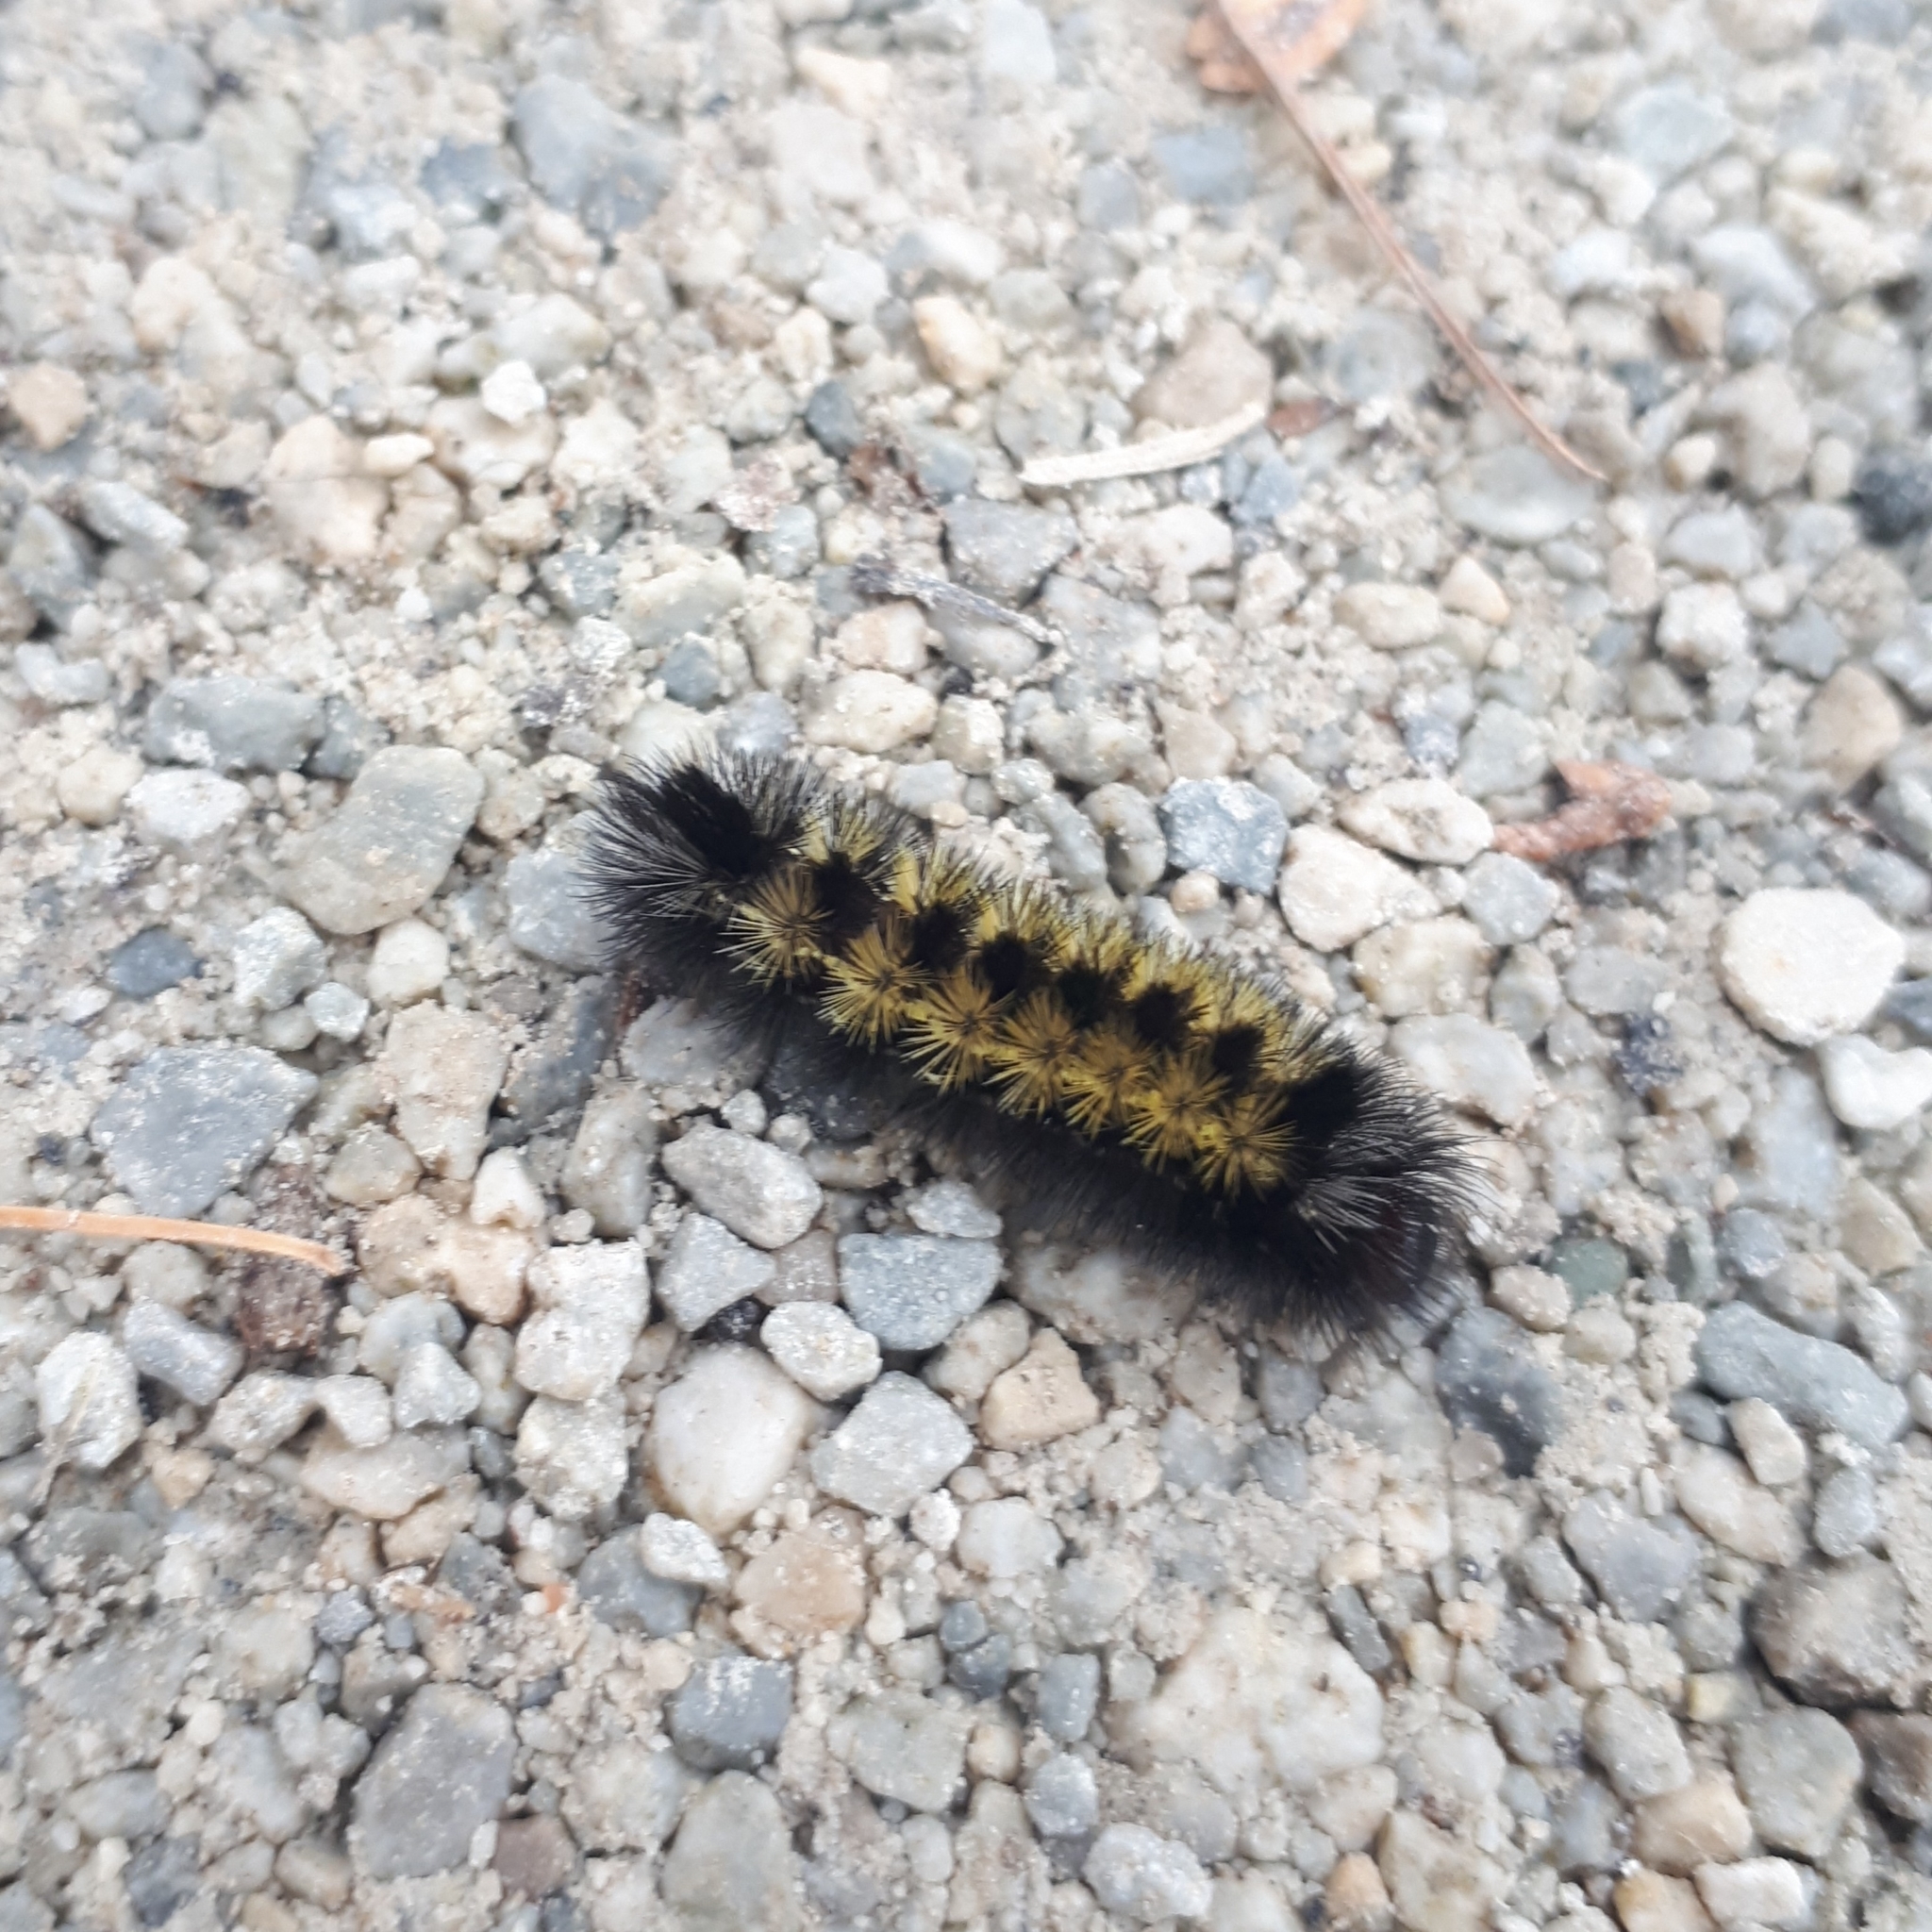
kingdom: Animalia
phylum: Arthropoda
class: Insecta
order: Lepidoptera
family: Erebidae
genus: Ctenucha
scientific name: Ctenucha virginica
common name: Virginia ctenucha moth
